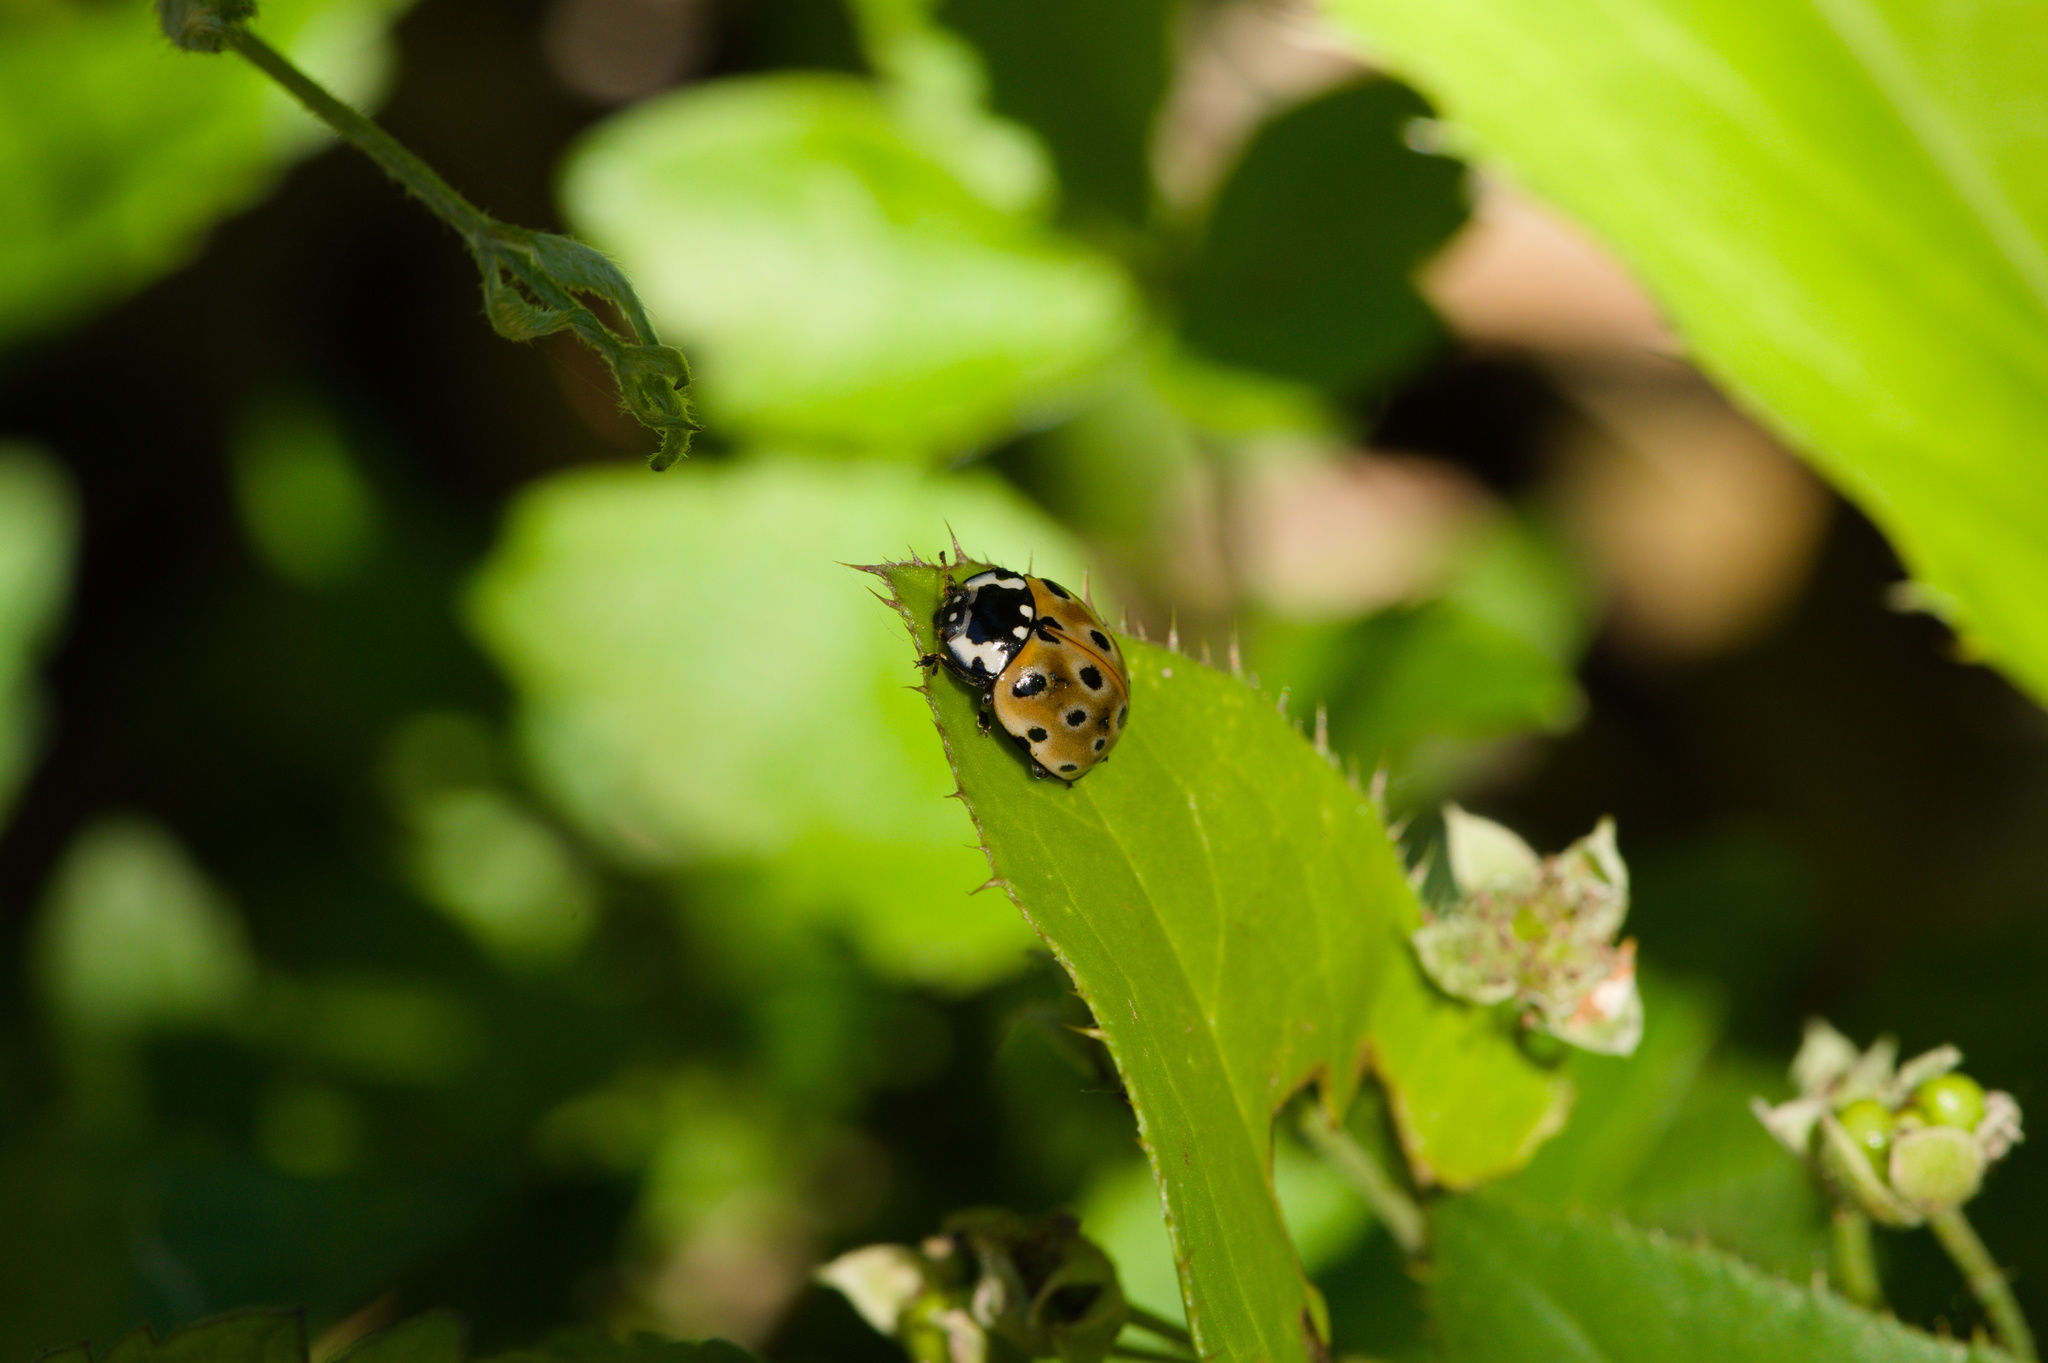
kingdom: Animalia
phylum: Arthropoda
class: Insecta
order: Coleoptera
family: Coccinellidae
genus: Anatis
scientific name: Anatis ocellata
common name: Eyed ladybird
